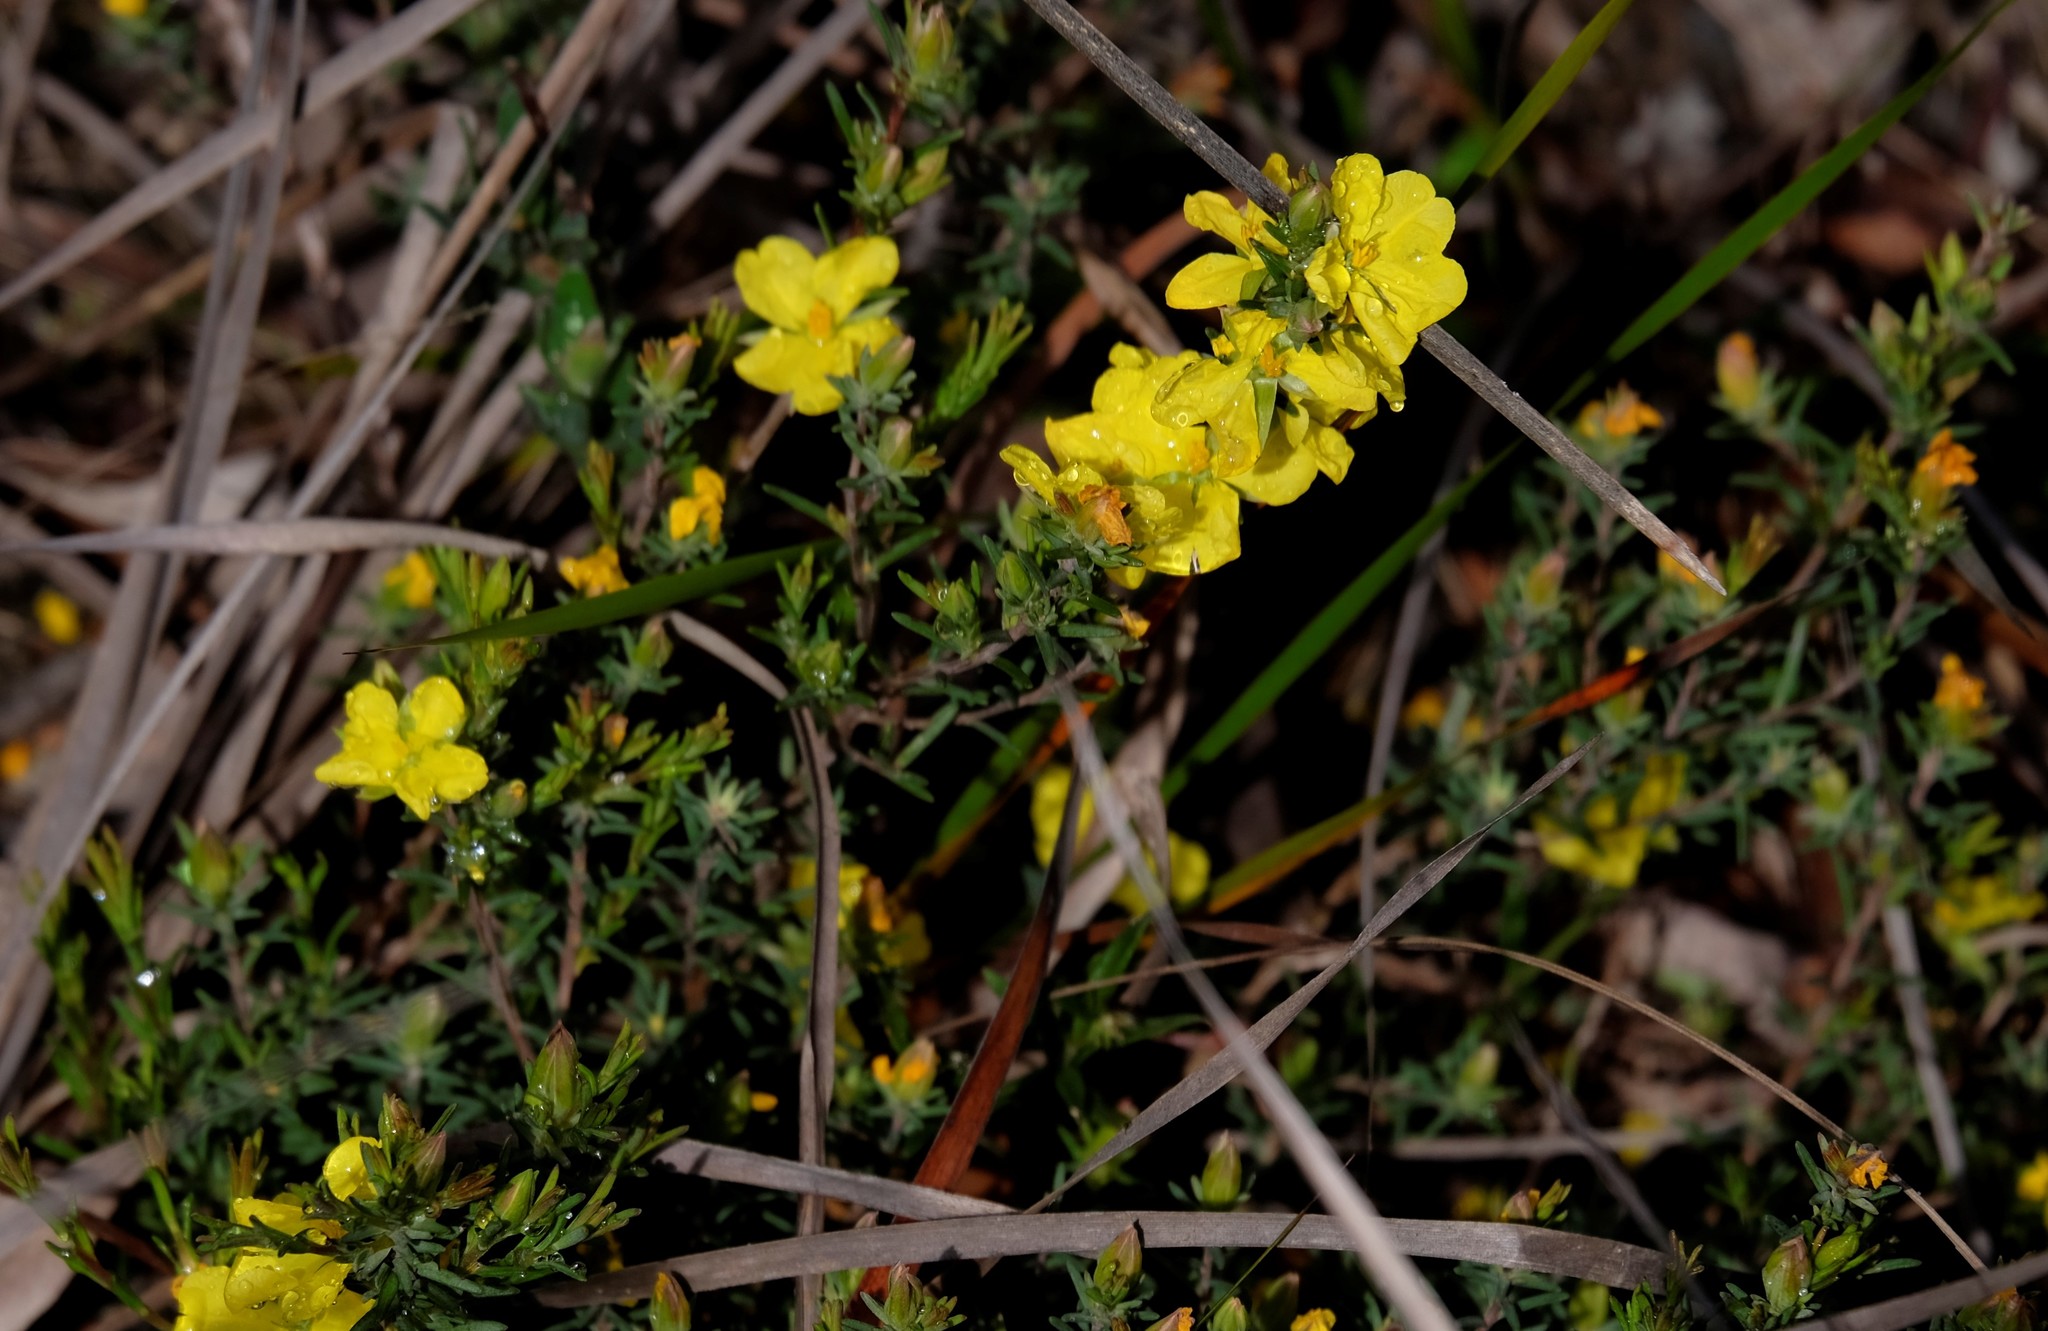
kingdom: Plantae
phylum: Tracheophyta
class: Magnoliopsida
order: Dilleniales
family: Dilleniaceae
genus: Hibbertia
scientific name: Hibbertia riparia
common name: Erect guinea-flower
